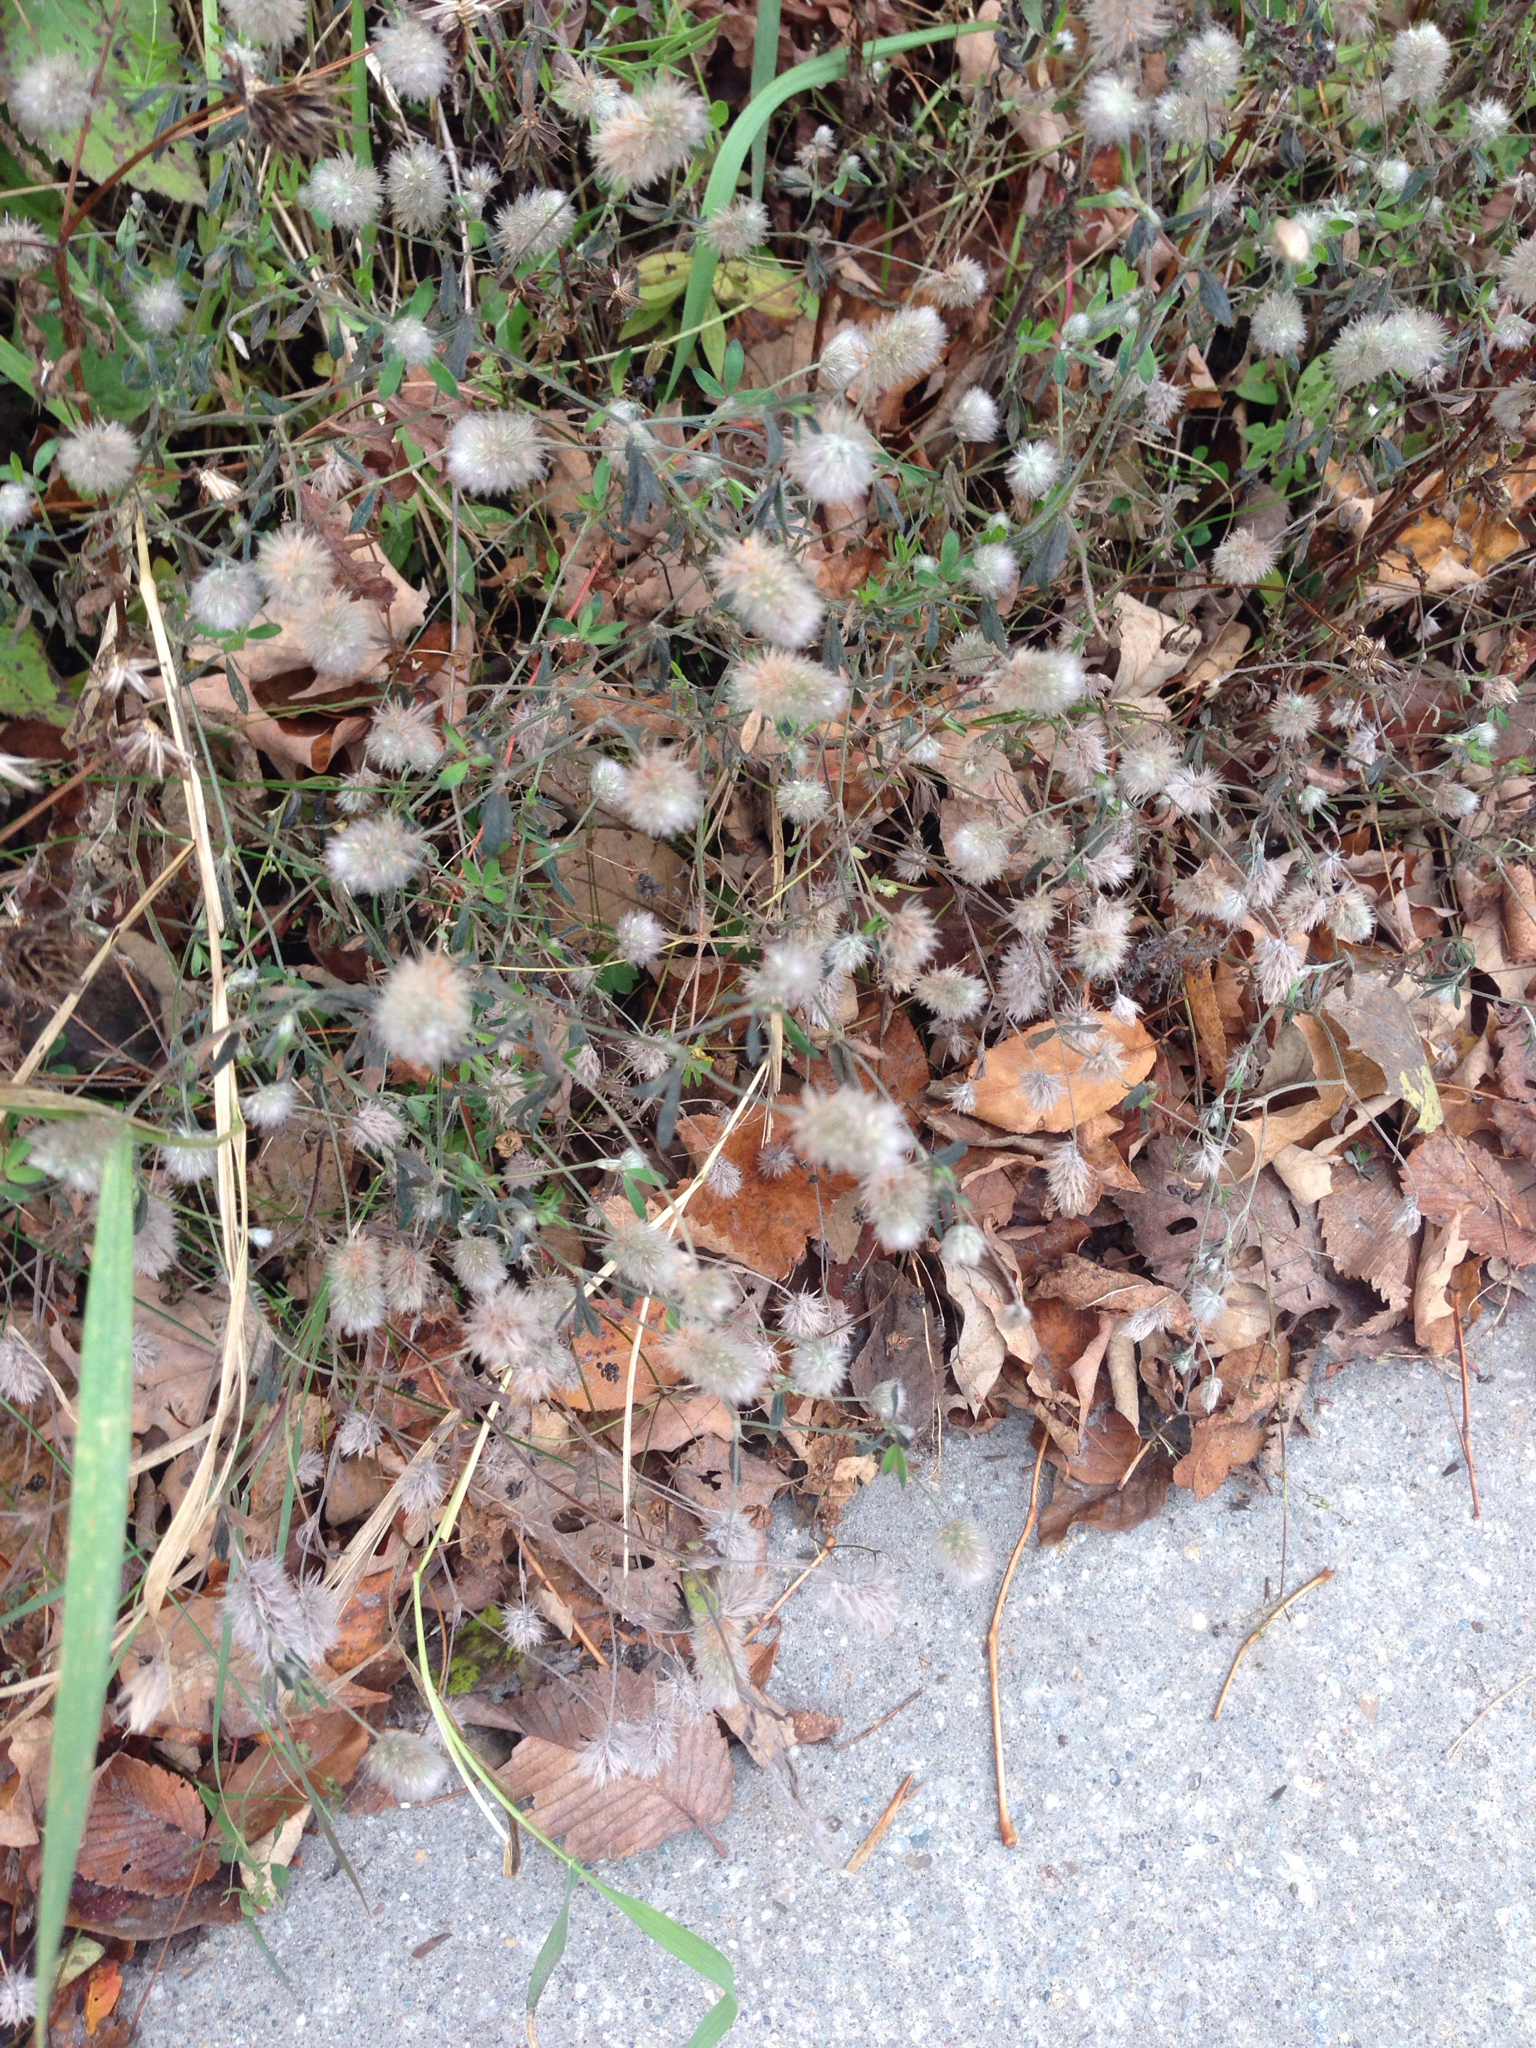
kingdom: Plantae
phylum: Tracheophyta
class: Magnoliopsida
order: Fabales
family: Fabaceae
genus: Trifolium
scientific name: Trifolium arvense
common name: Hare's-foot clover
